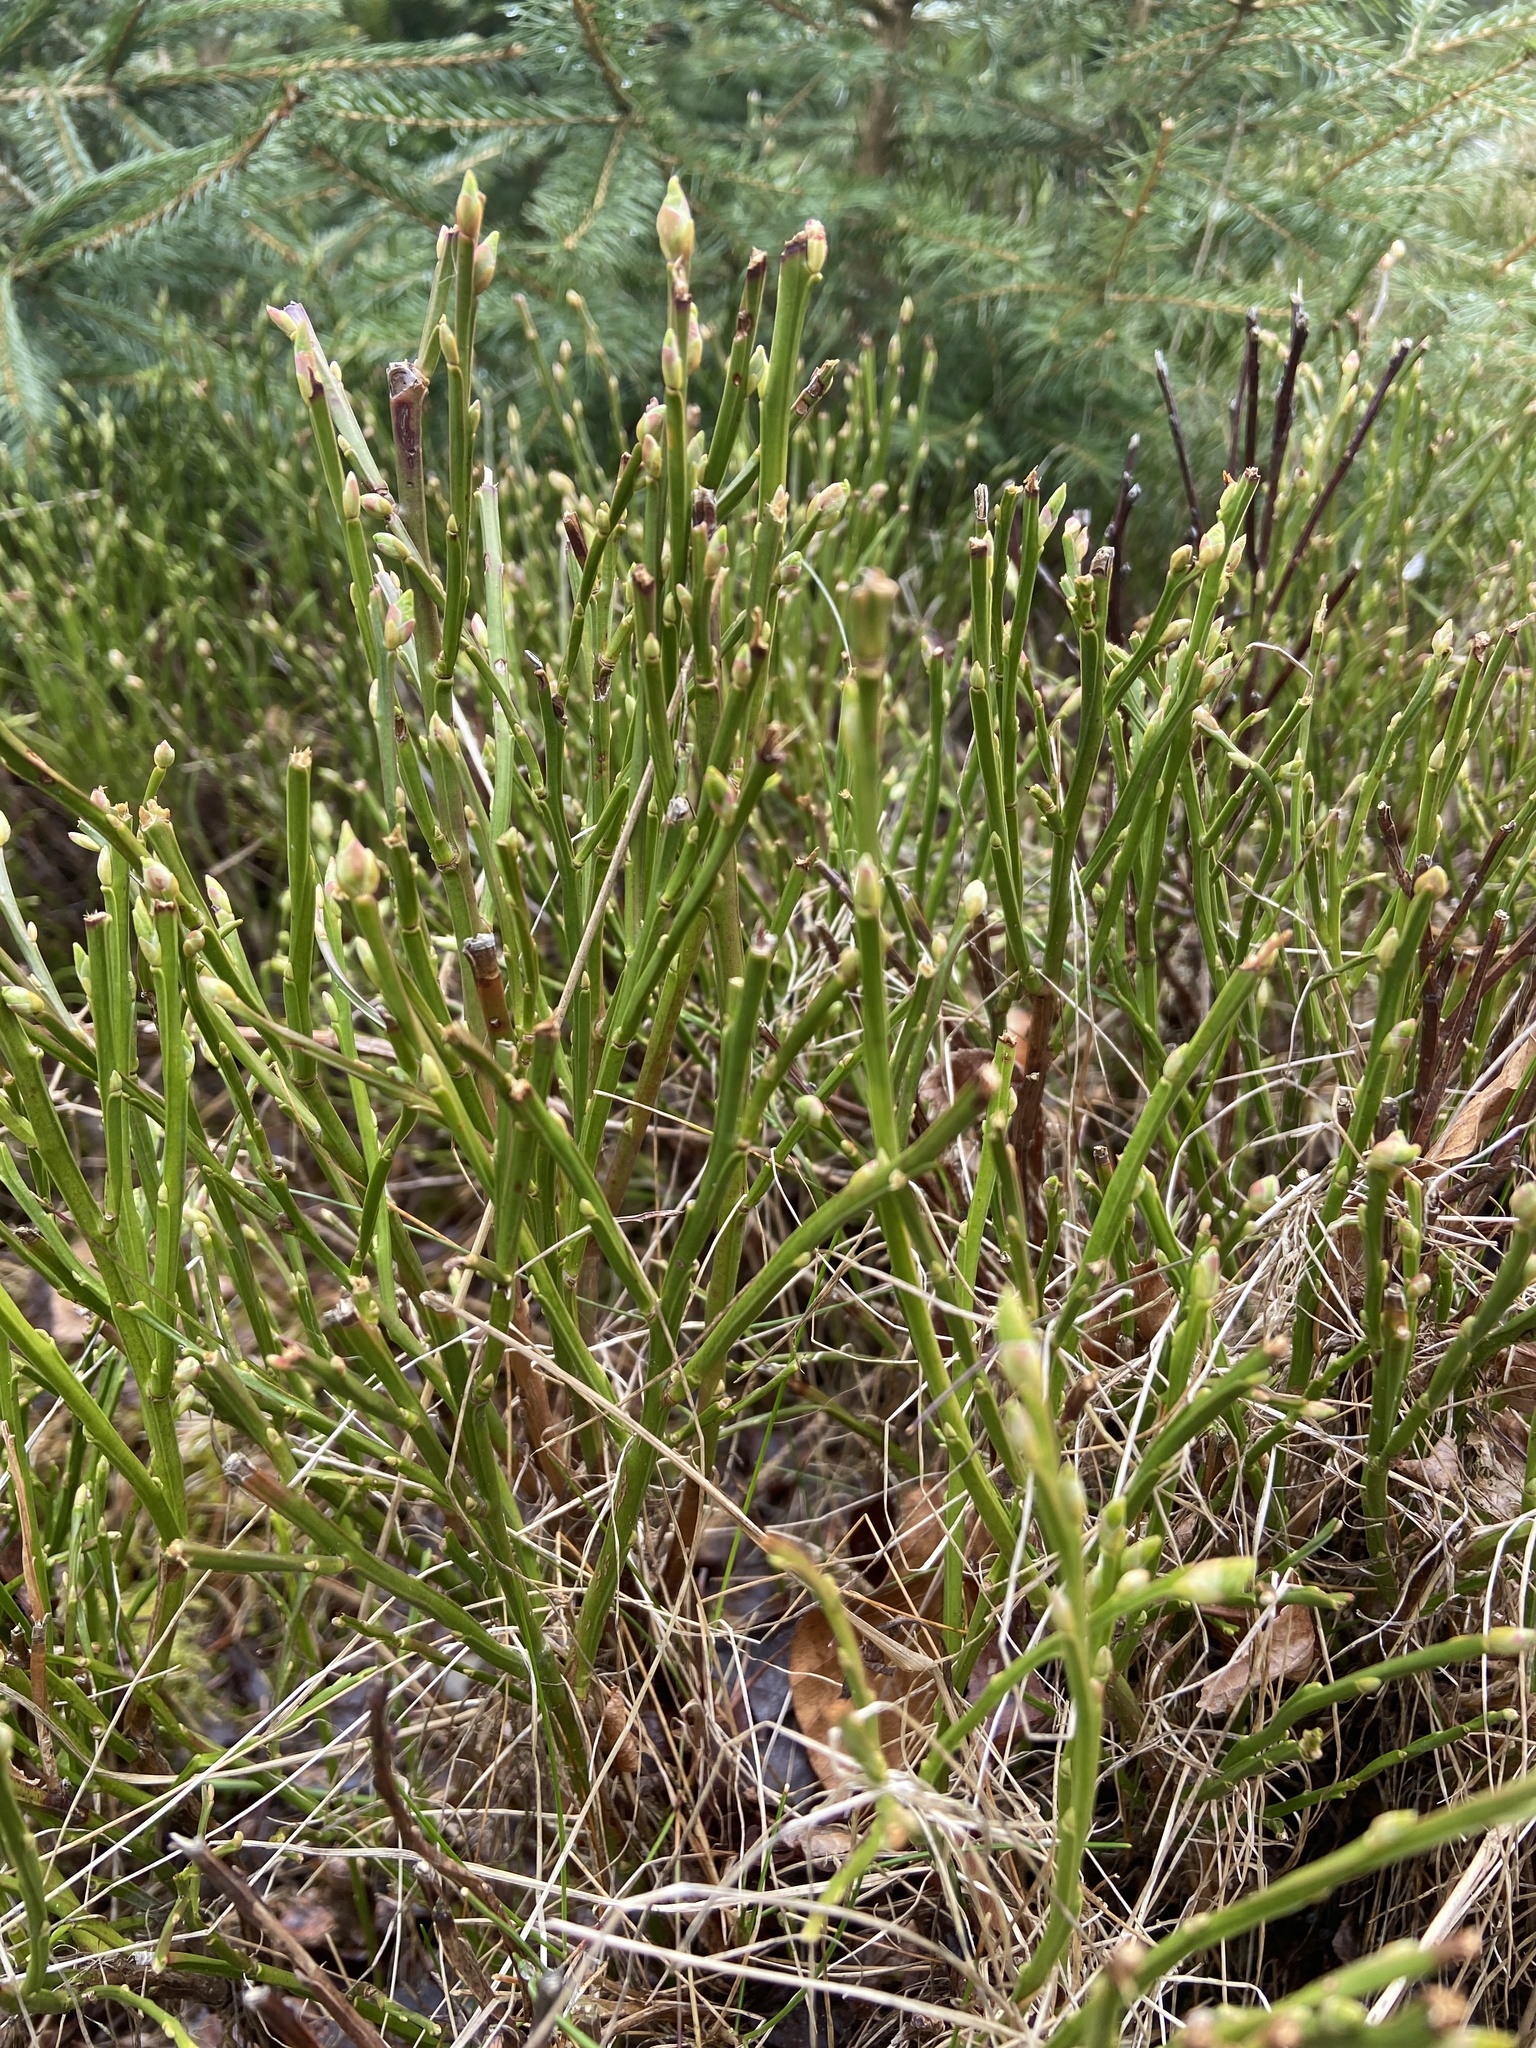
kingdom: Plantae
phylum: Tracheophyta
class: Magnoliopsida
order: Ericales
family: Ericaceae
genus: Vaccinium
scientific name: Vaccinium myrtillus
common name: Bilberry
